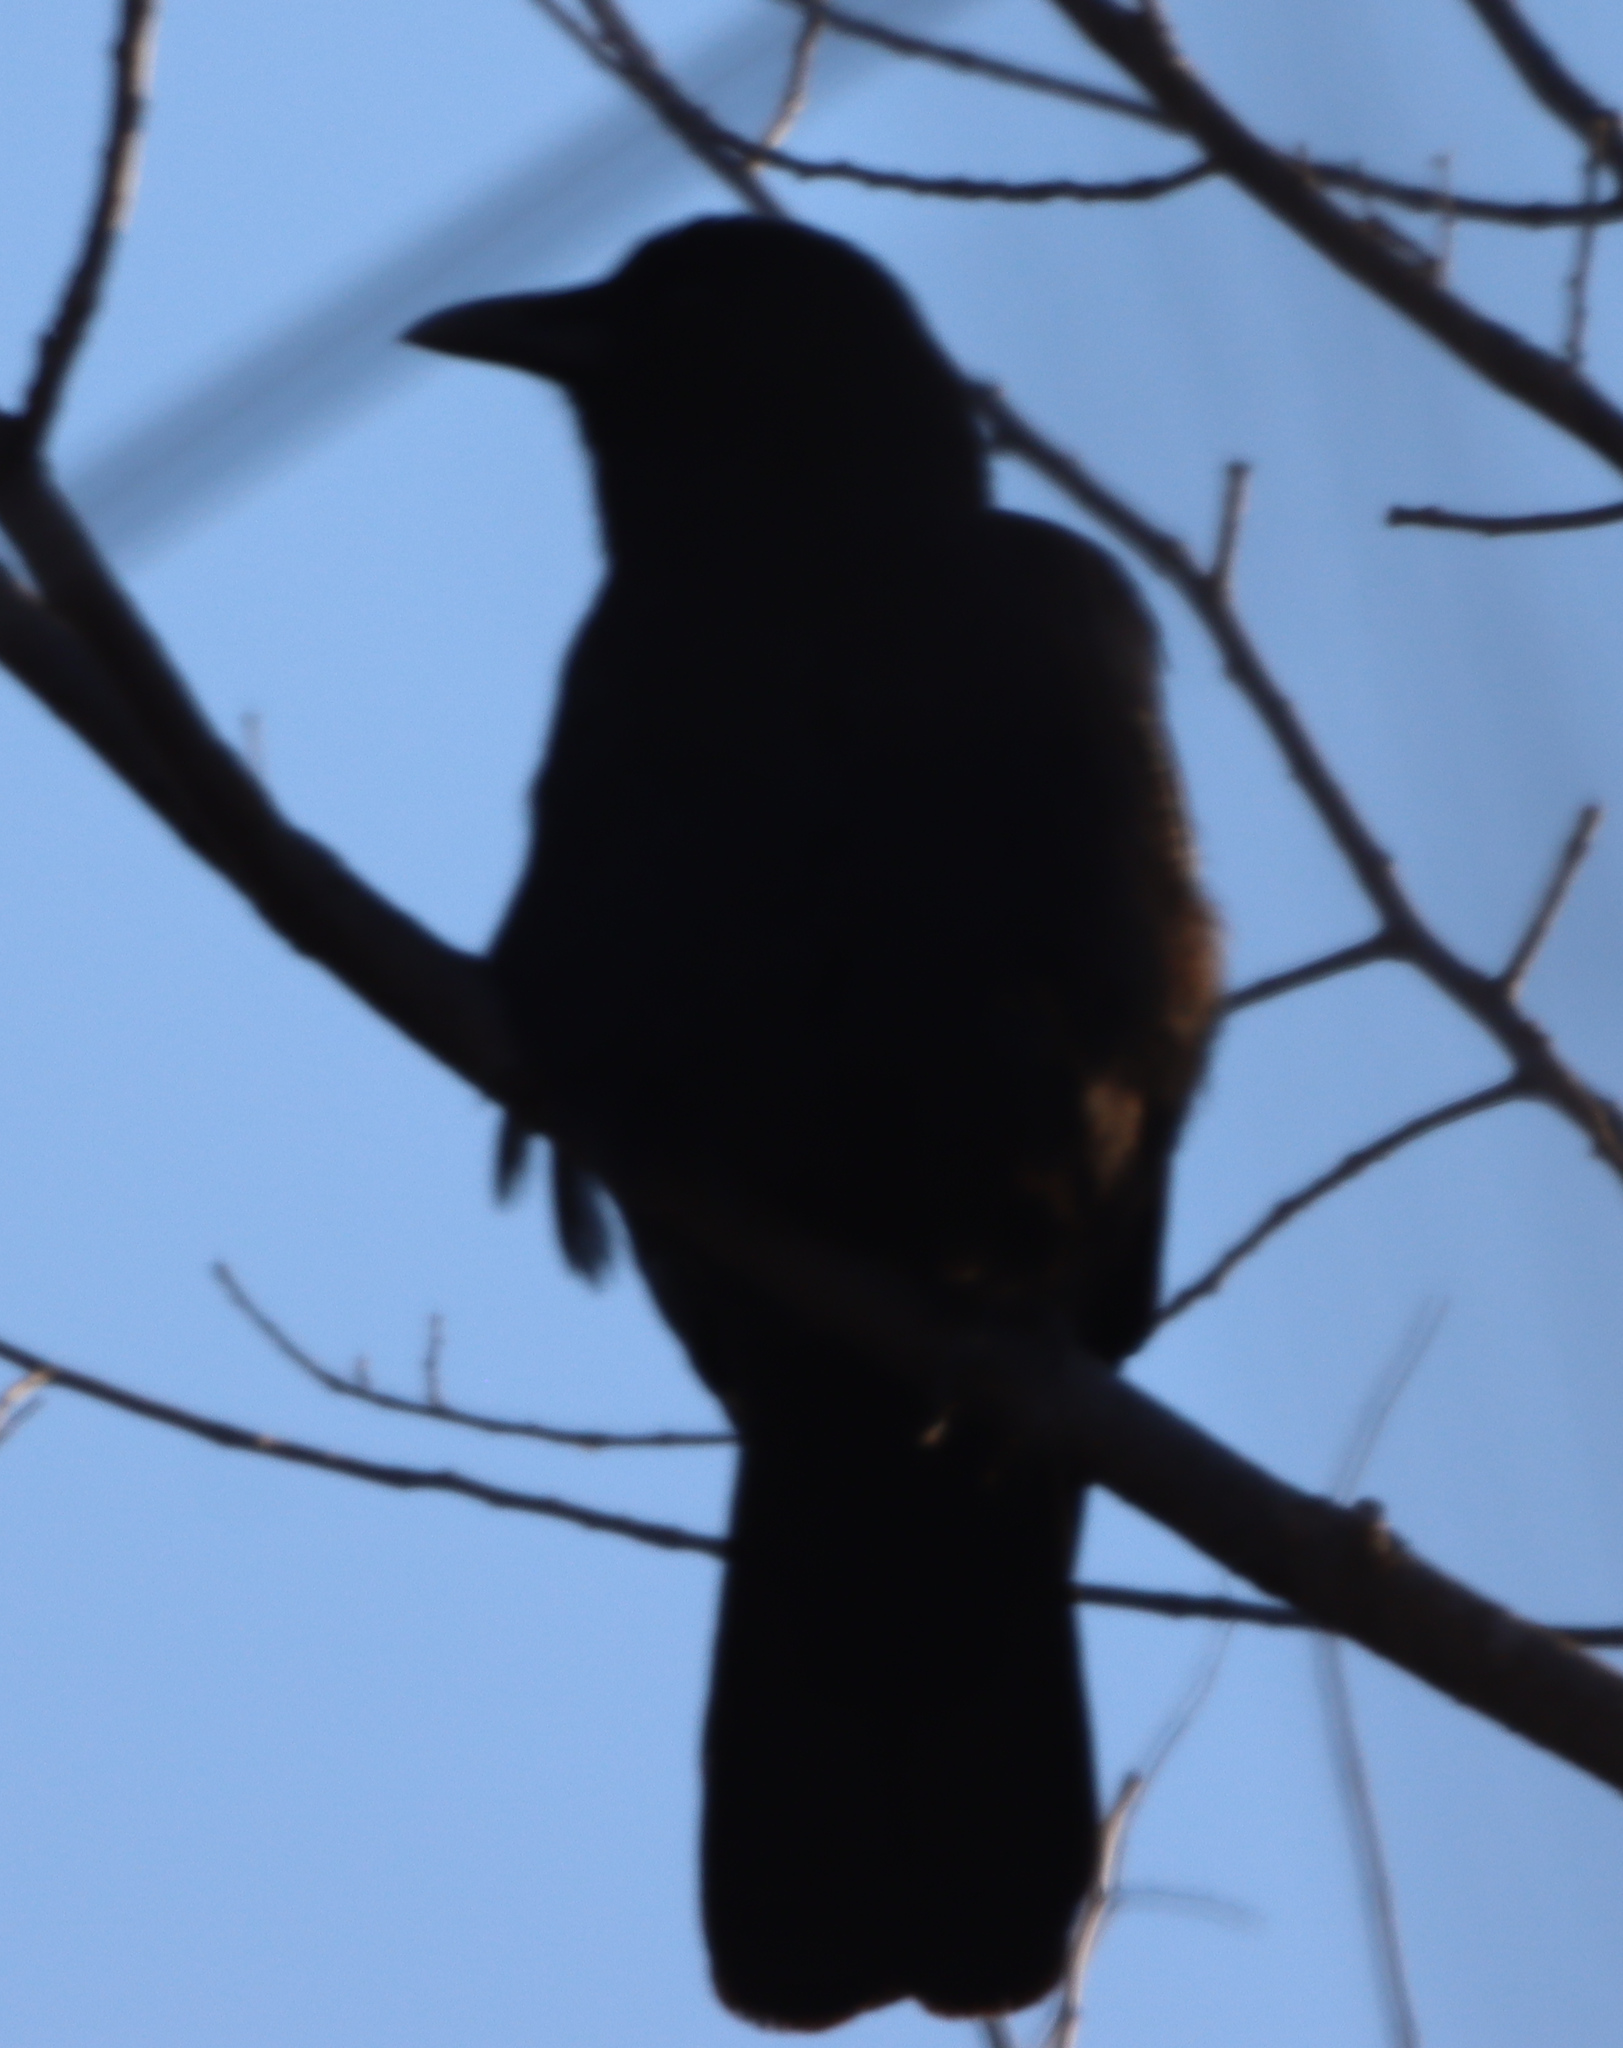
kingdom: Animalia
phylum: Chordata
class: Aves
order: Passeriformes
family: Corvidae
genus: Corvus
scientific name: Corvus brachyrhynchos
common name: American crow
